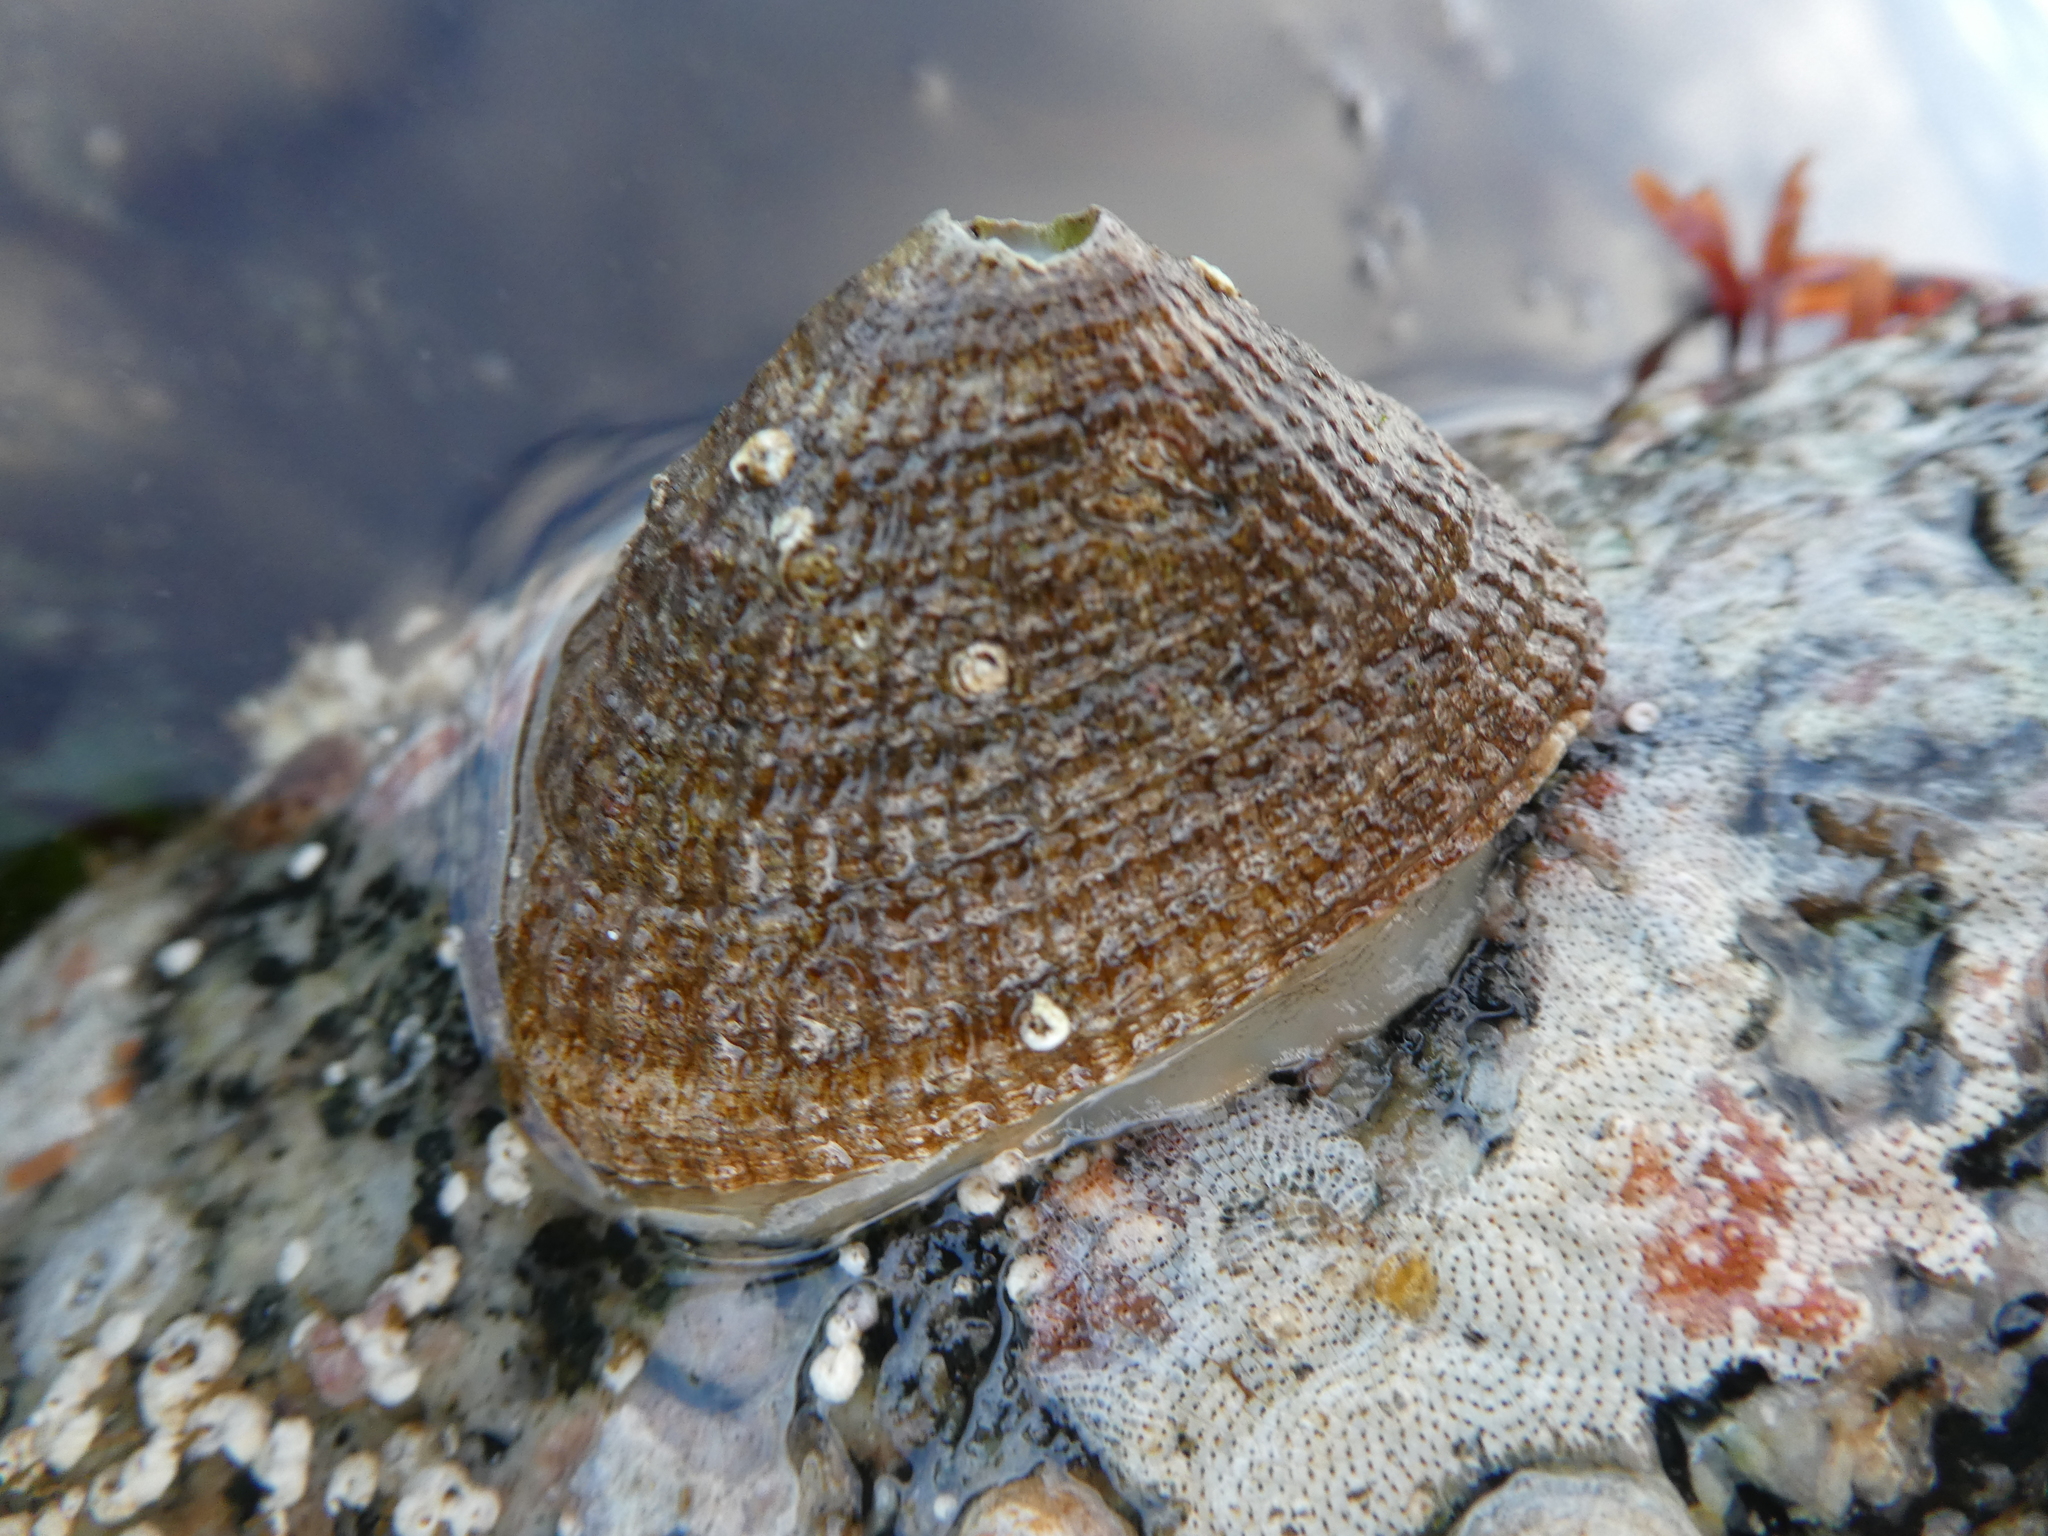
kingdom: Animalia
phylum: Mollusca
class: Gastropoda
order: Lepetellida
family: Fissurellidae
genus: Diodora
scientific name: Diodora aspera
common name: Rough keyhole limpet
